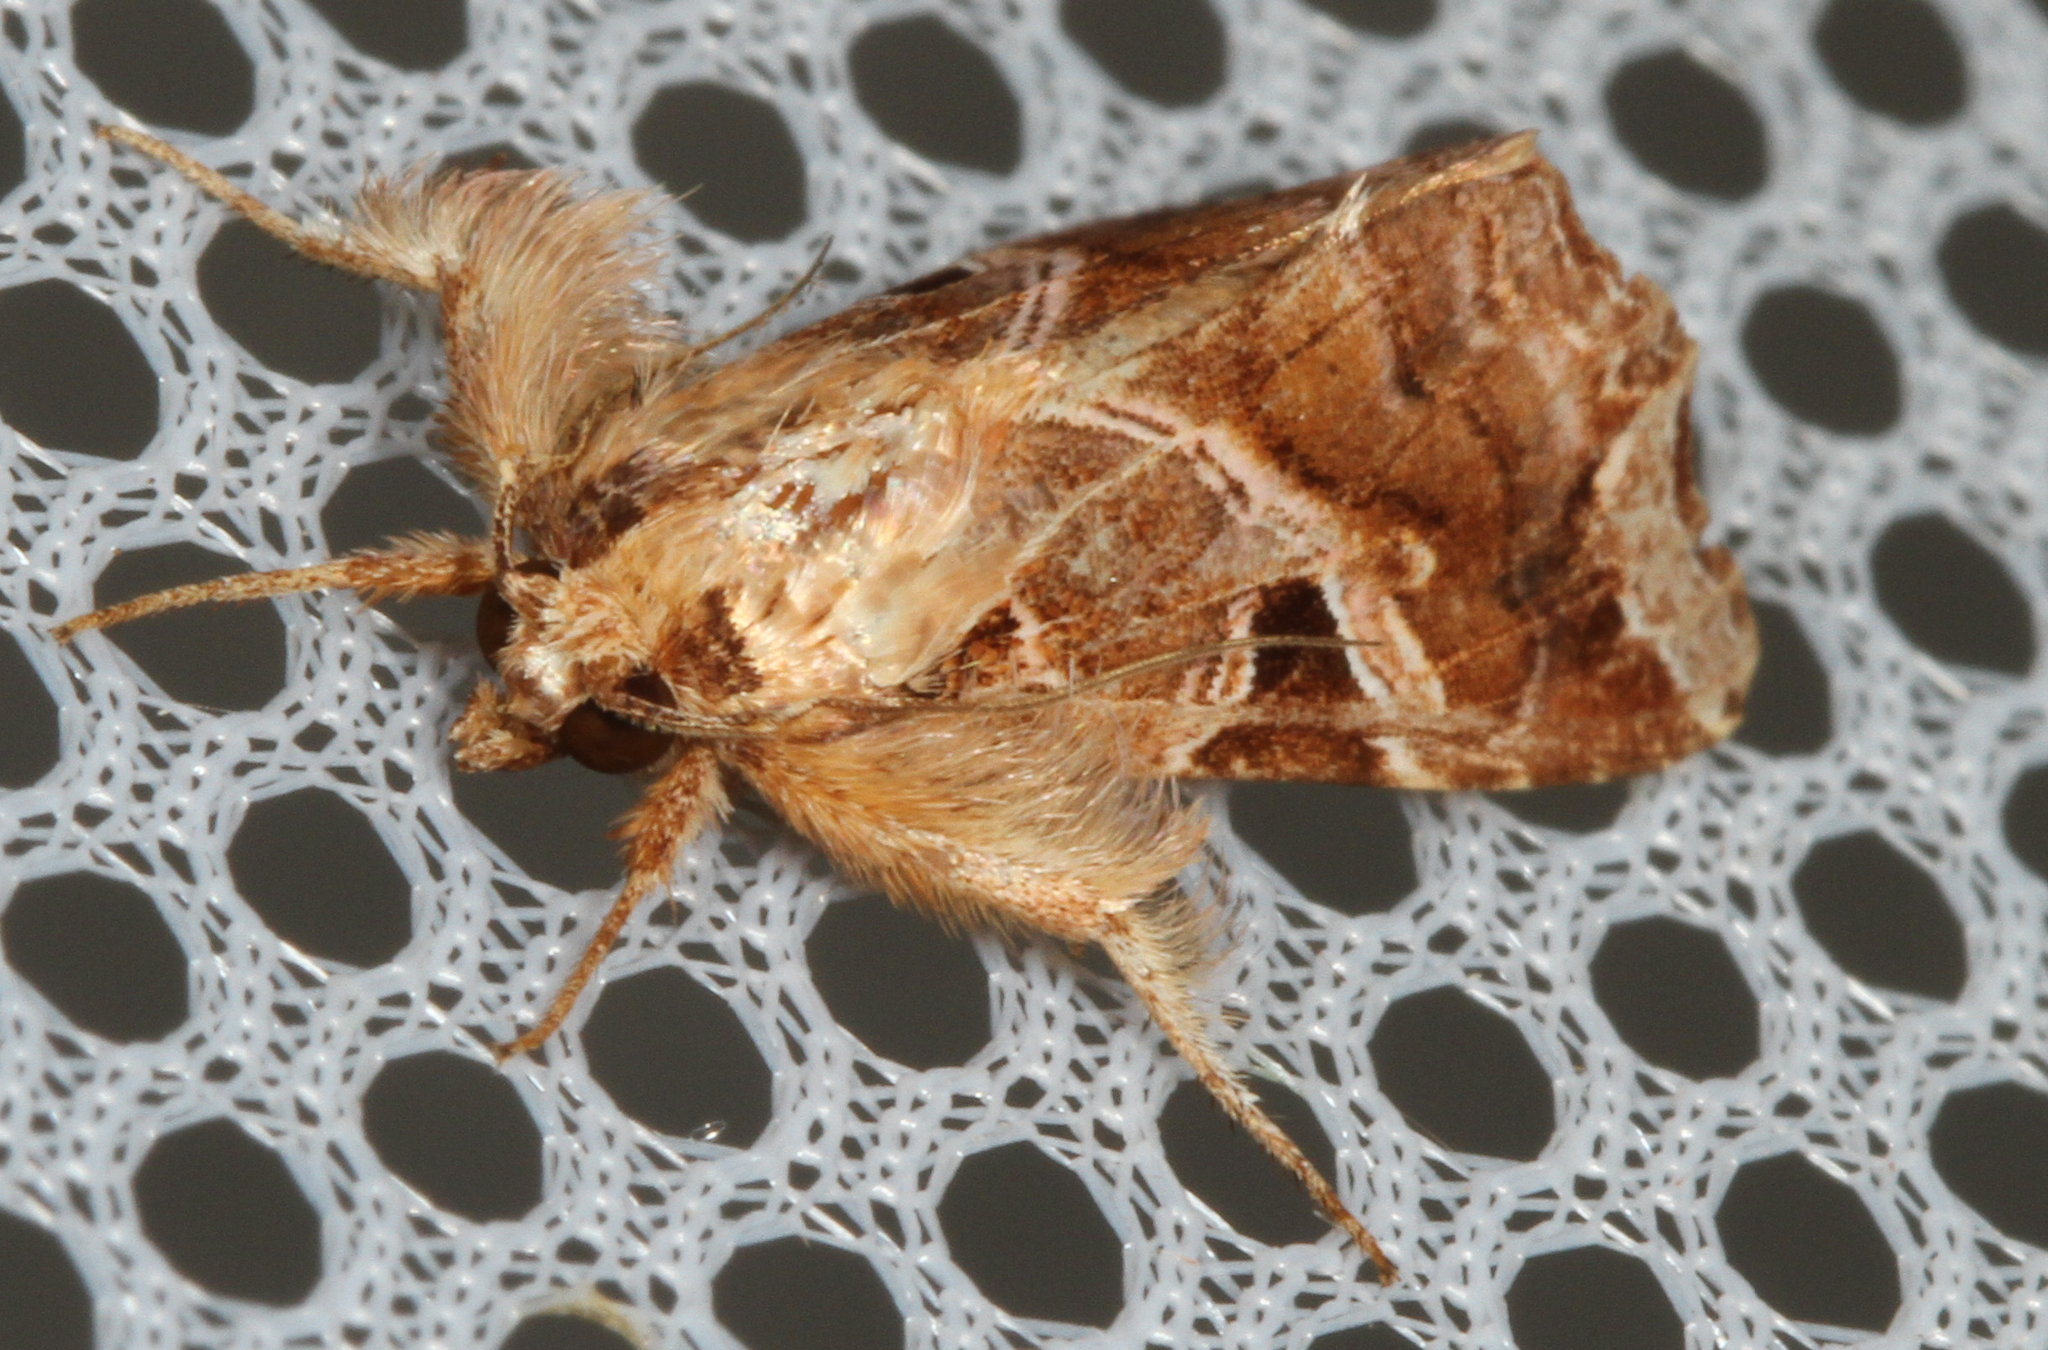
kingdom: Animalia
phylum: Arthropoda
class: Insecta
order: Lepidoptera
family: Noctuidae
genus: Callopistria
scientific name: Callopistria floridensis
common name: Florida fern moth
